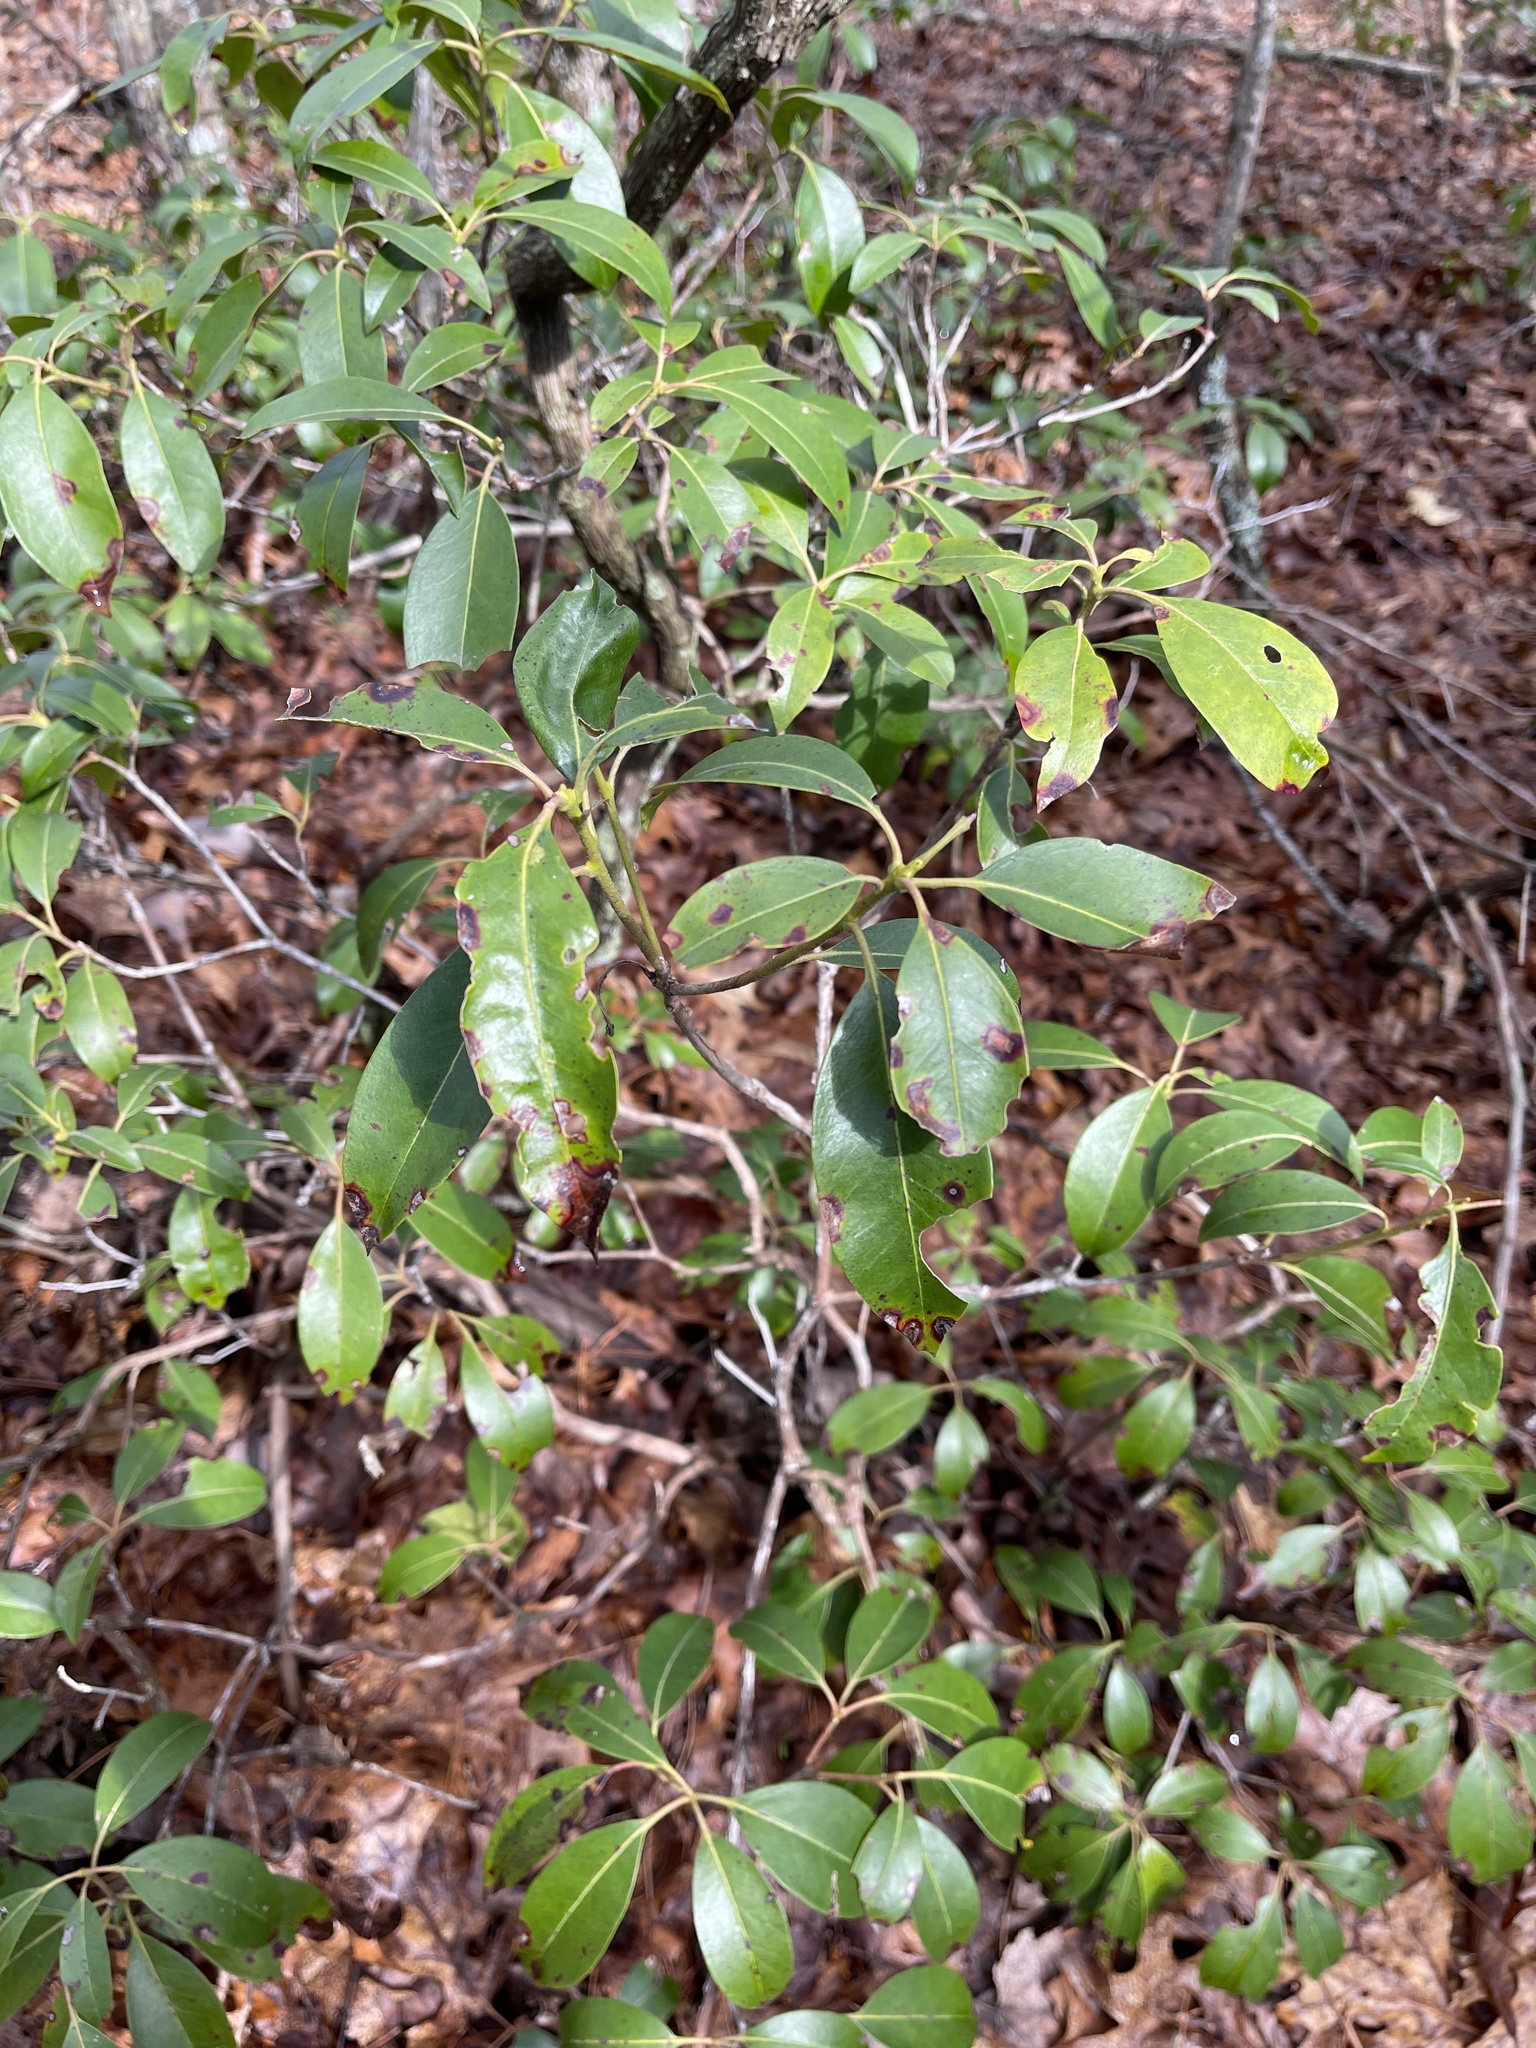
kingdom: Plantae
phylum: Tracheophyta
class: Magnoliopsida
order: Ericales
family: Ericaceae
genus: Kalmia
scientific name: Kalmia latifolia
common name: Mountain-laurel
